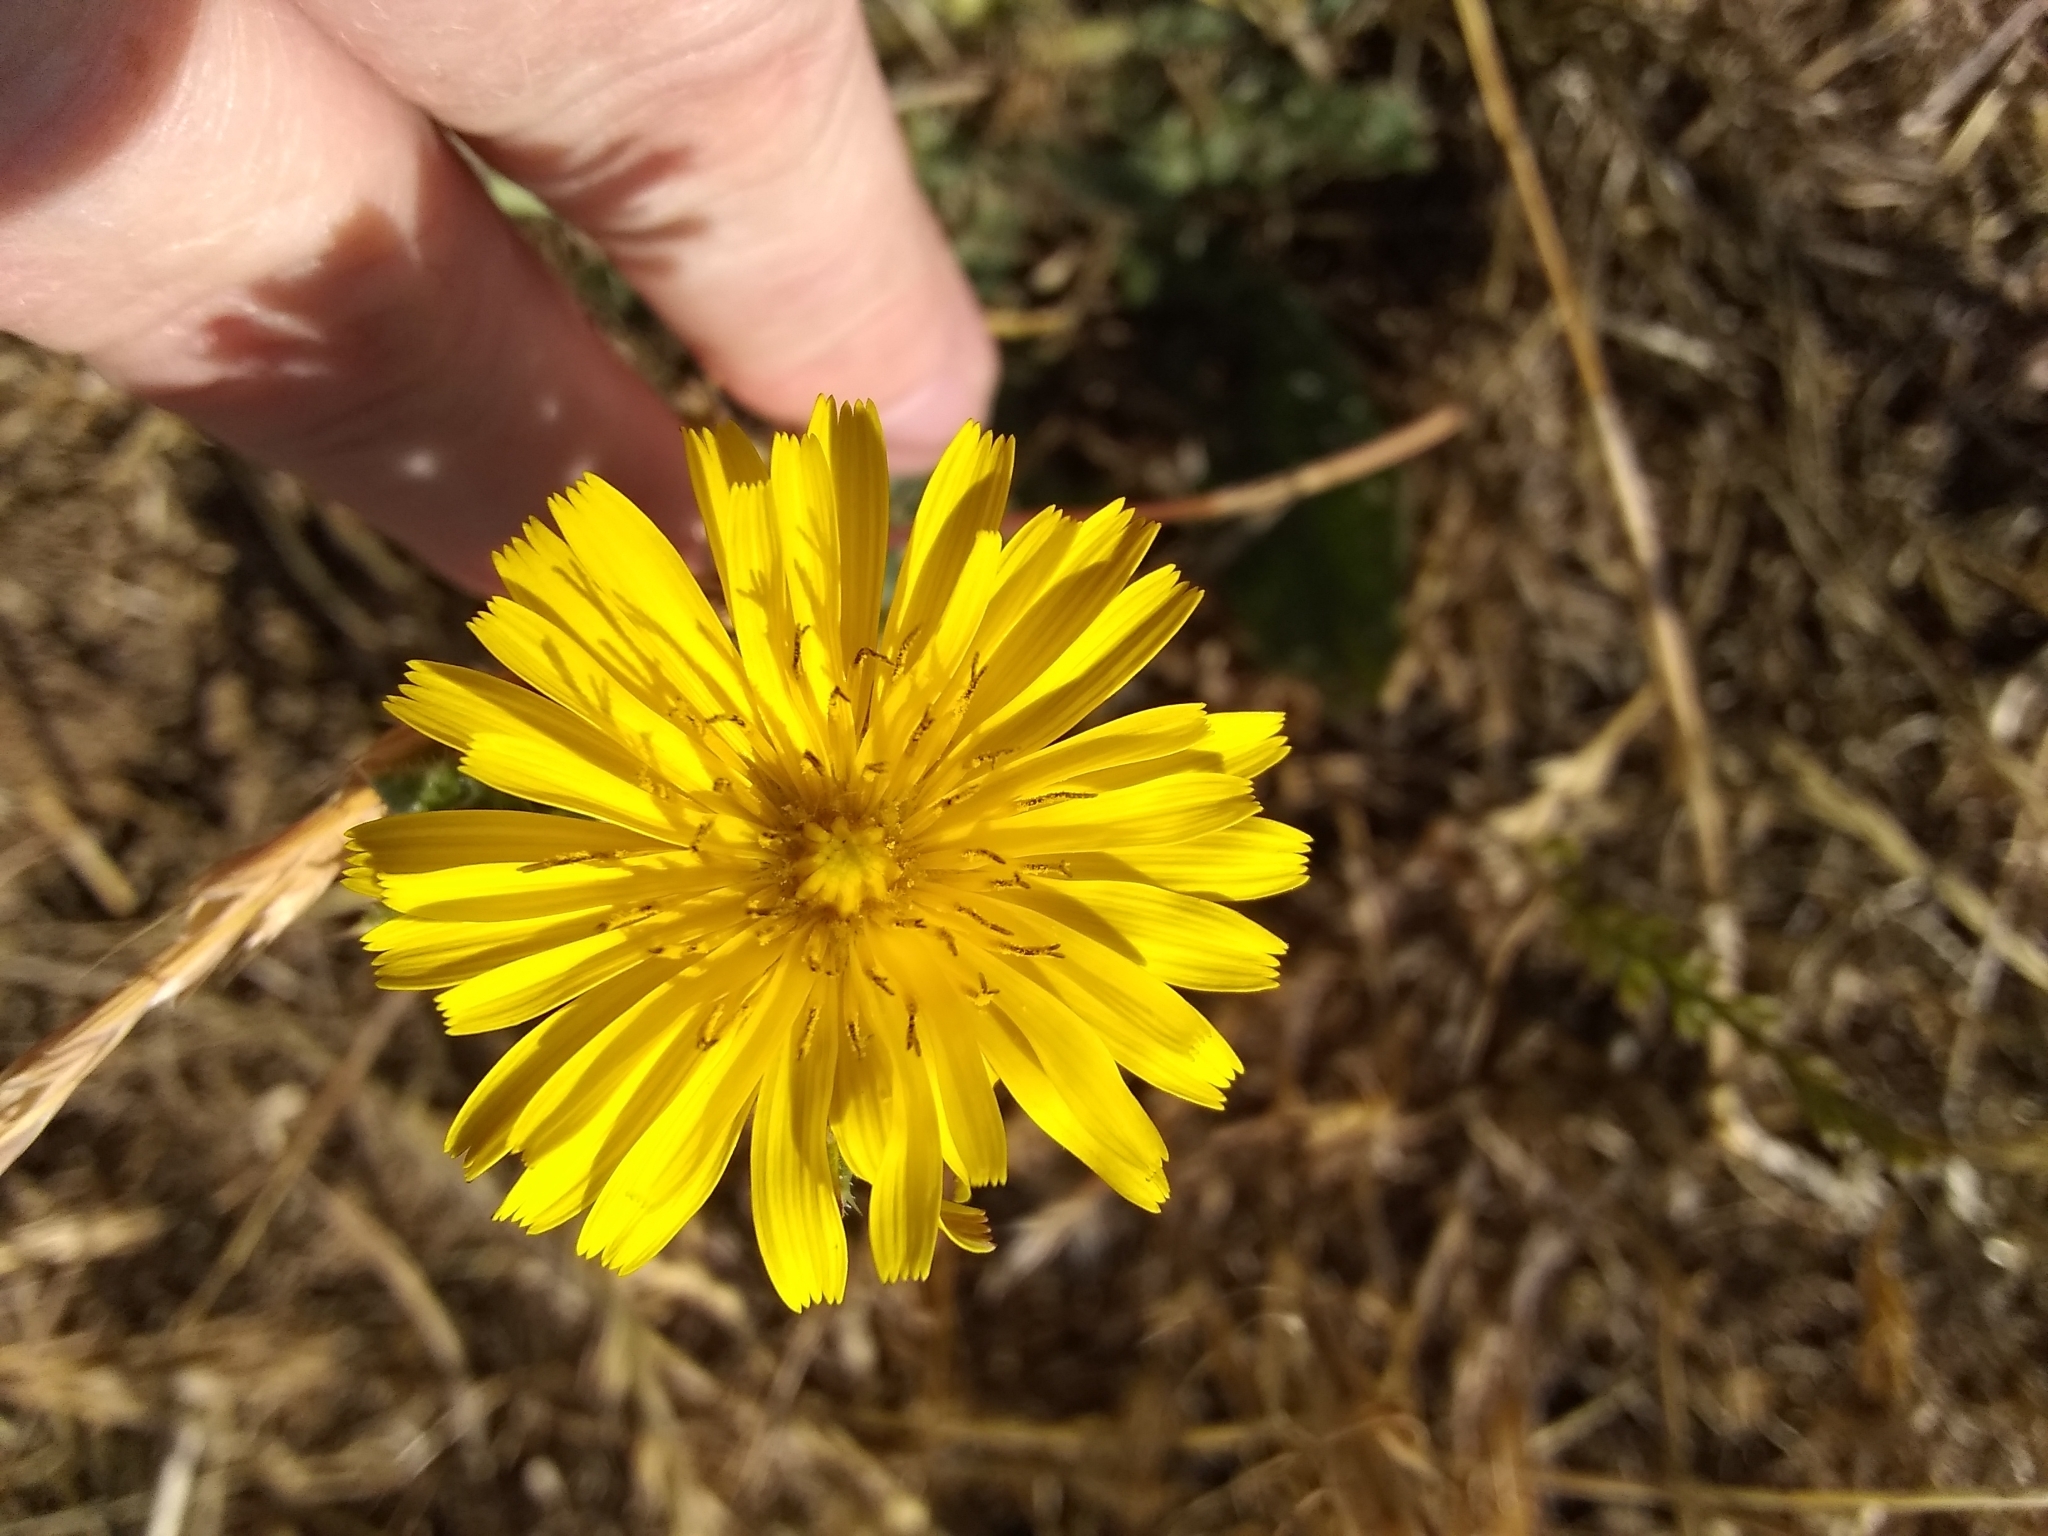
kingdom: Plantae
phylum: Tracheophyta
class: Magnoliopsida
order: Asterales
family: Asteraceae
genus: Helminthotheca
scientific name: Helminthotheca echioides
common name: Ox-tongue
